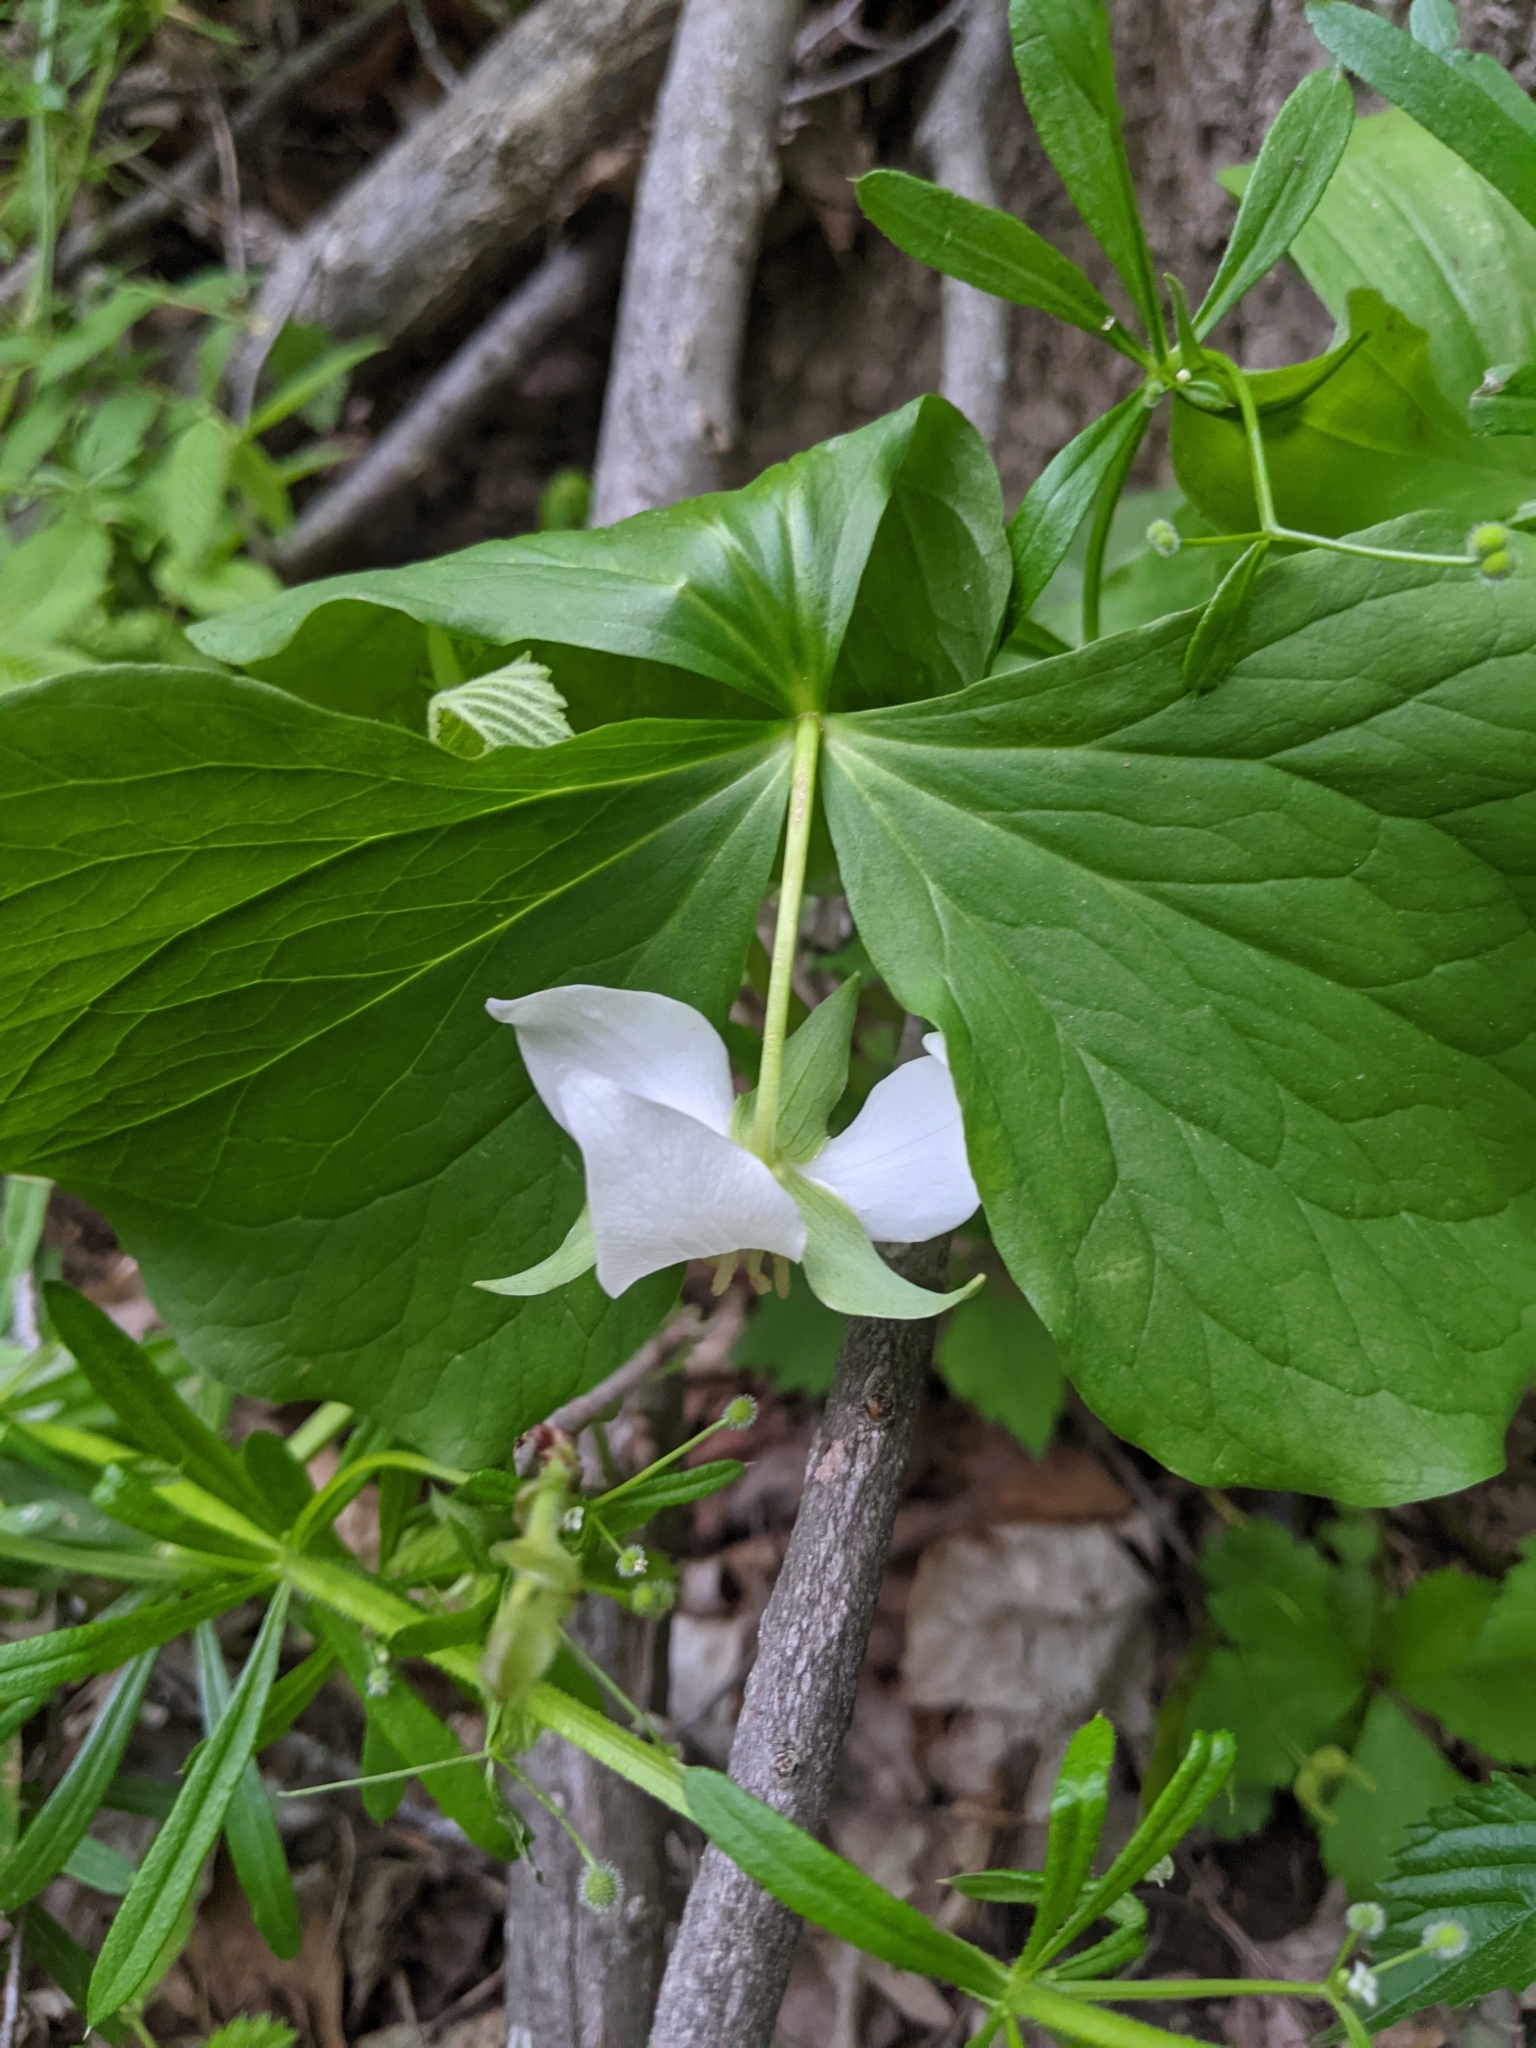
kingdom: Plantae
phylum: Tracheophyta
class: Liliopsida
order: Liliales
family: Melanthiaceae
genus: Trillium
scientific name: Trillium flexipes
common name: Drooping trillium
